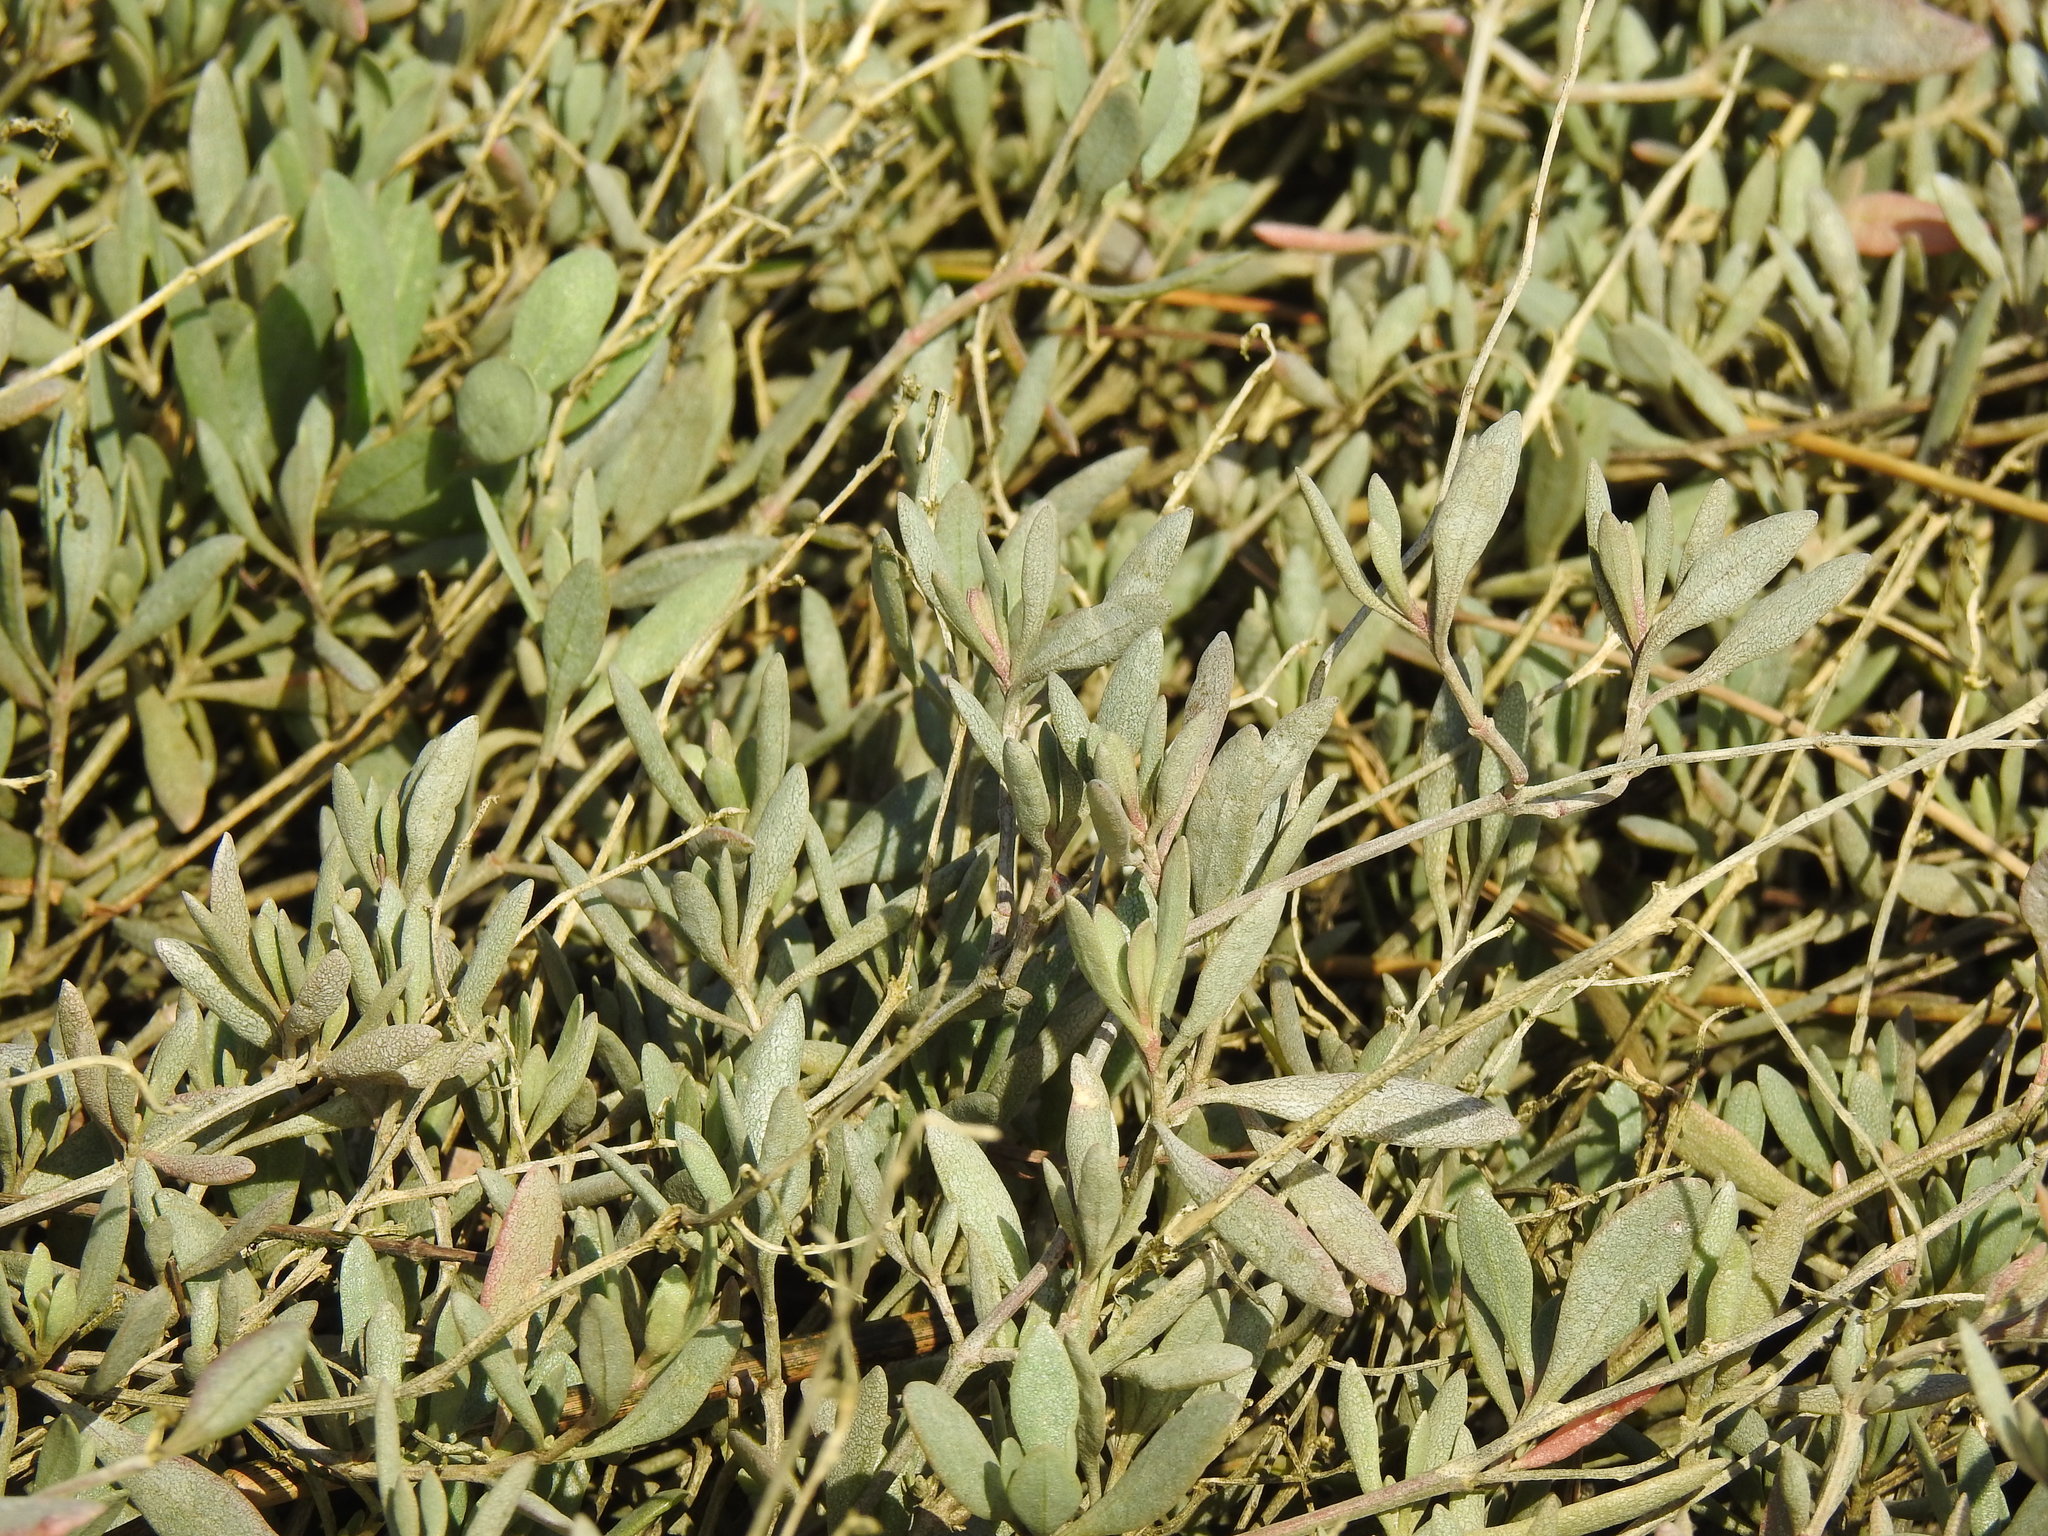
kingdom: Plantae
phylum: Tracheophyta
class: Magnoliopsida
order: Caryophyllales
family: Amaranthaceae
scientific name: Amaranthaceae
